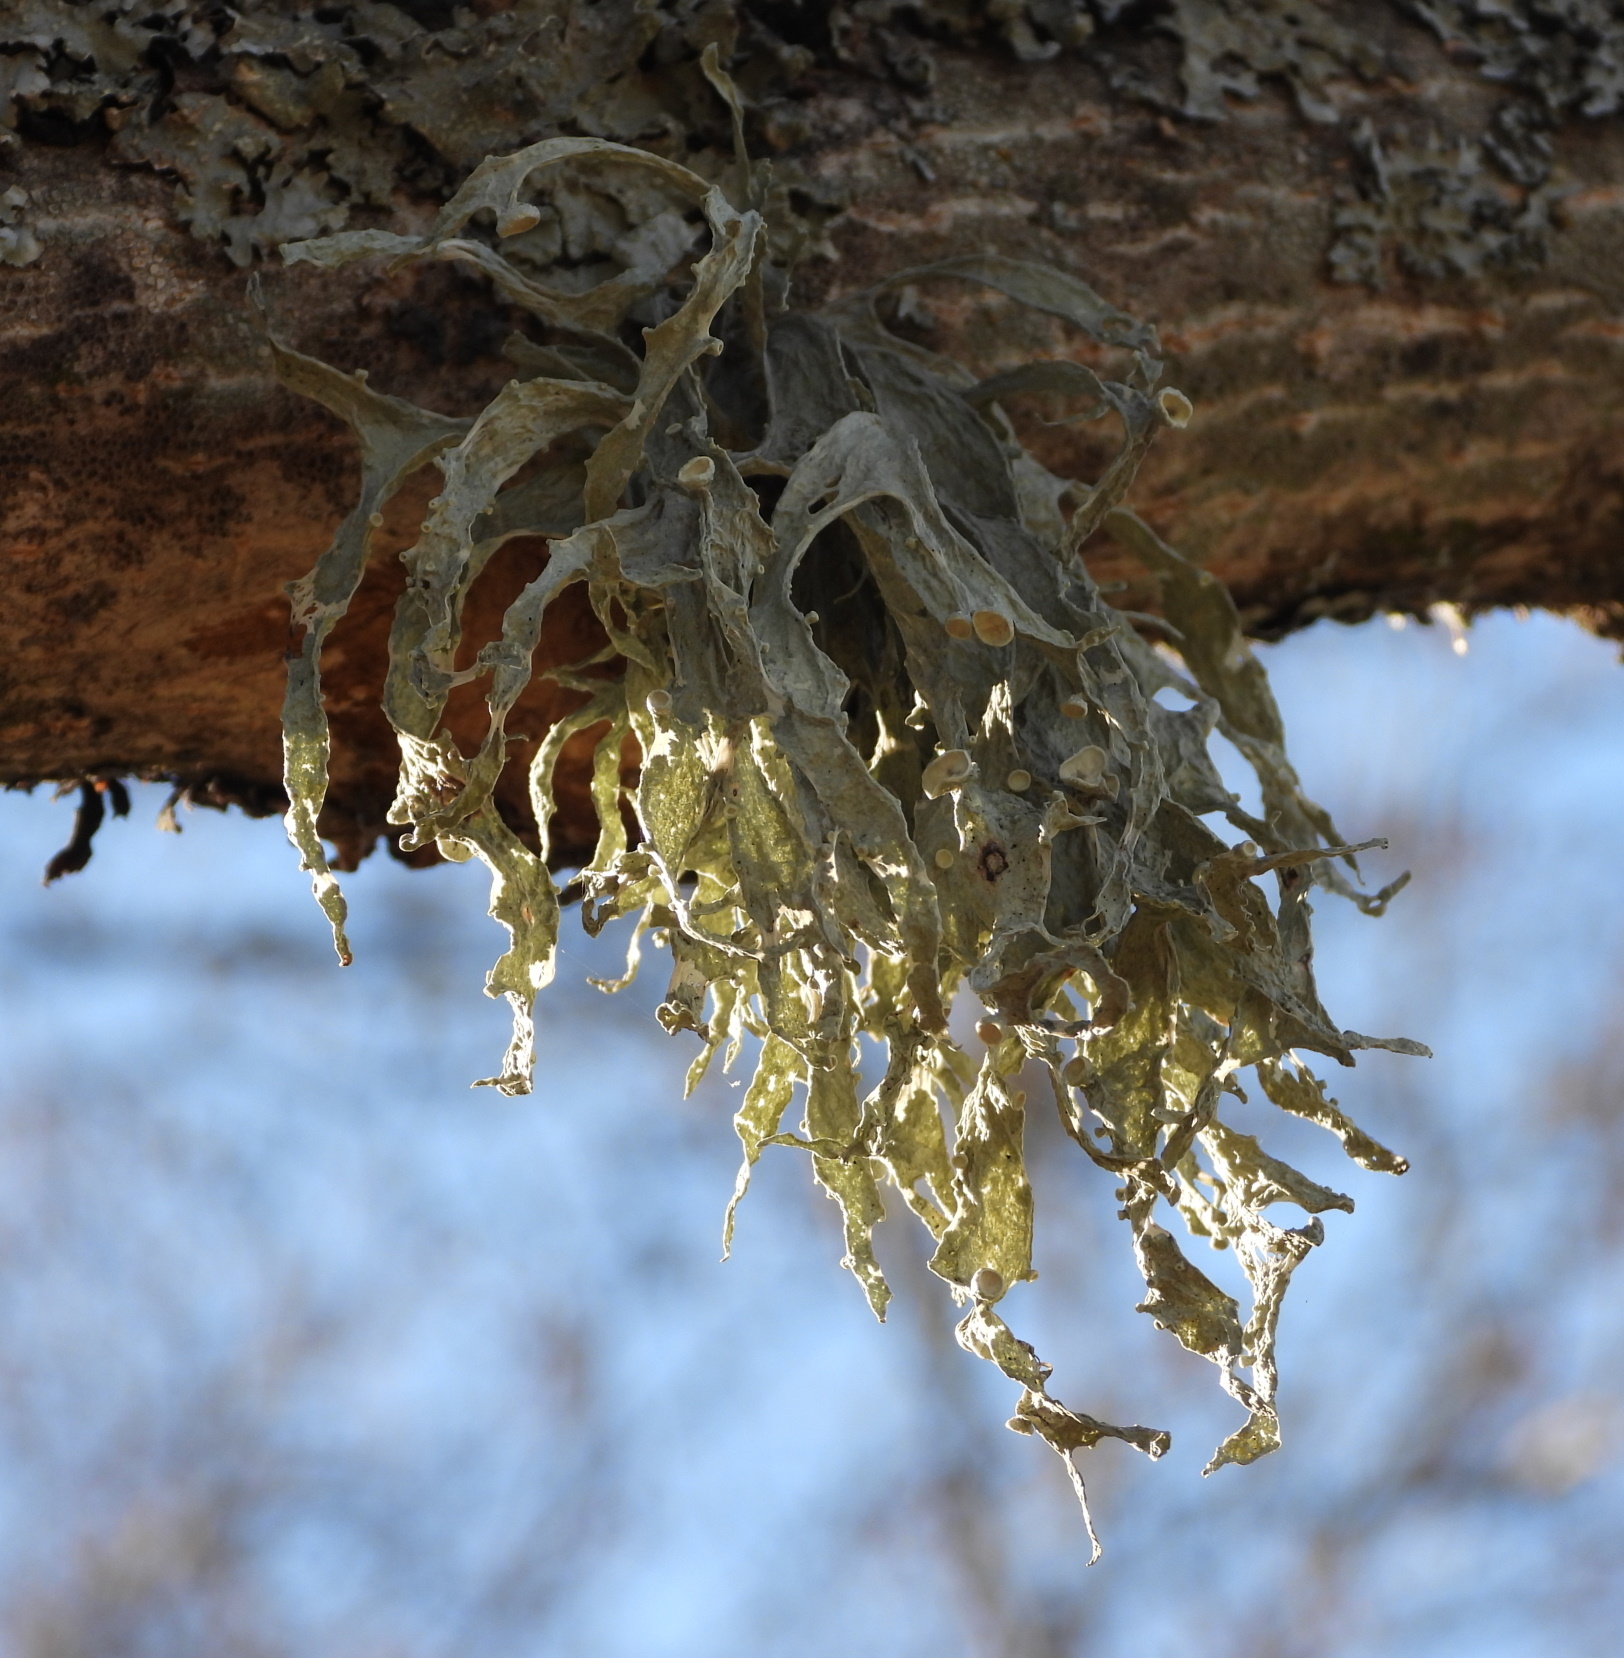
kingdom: Fungi
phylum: Ascomycota
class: Lecanoromycetes
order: Lecanorales
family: Ramalinaceae
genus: Ramalina
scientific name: Ramalina fraxinea
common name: Cartilage lichen
